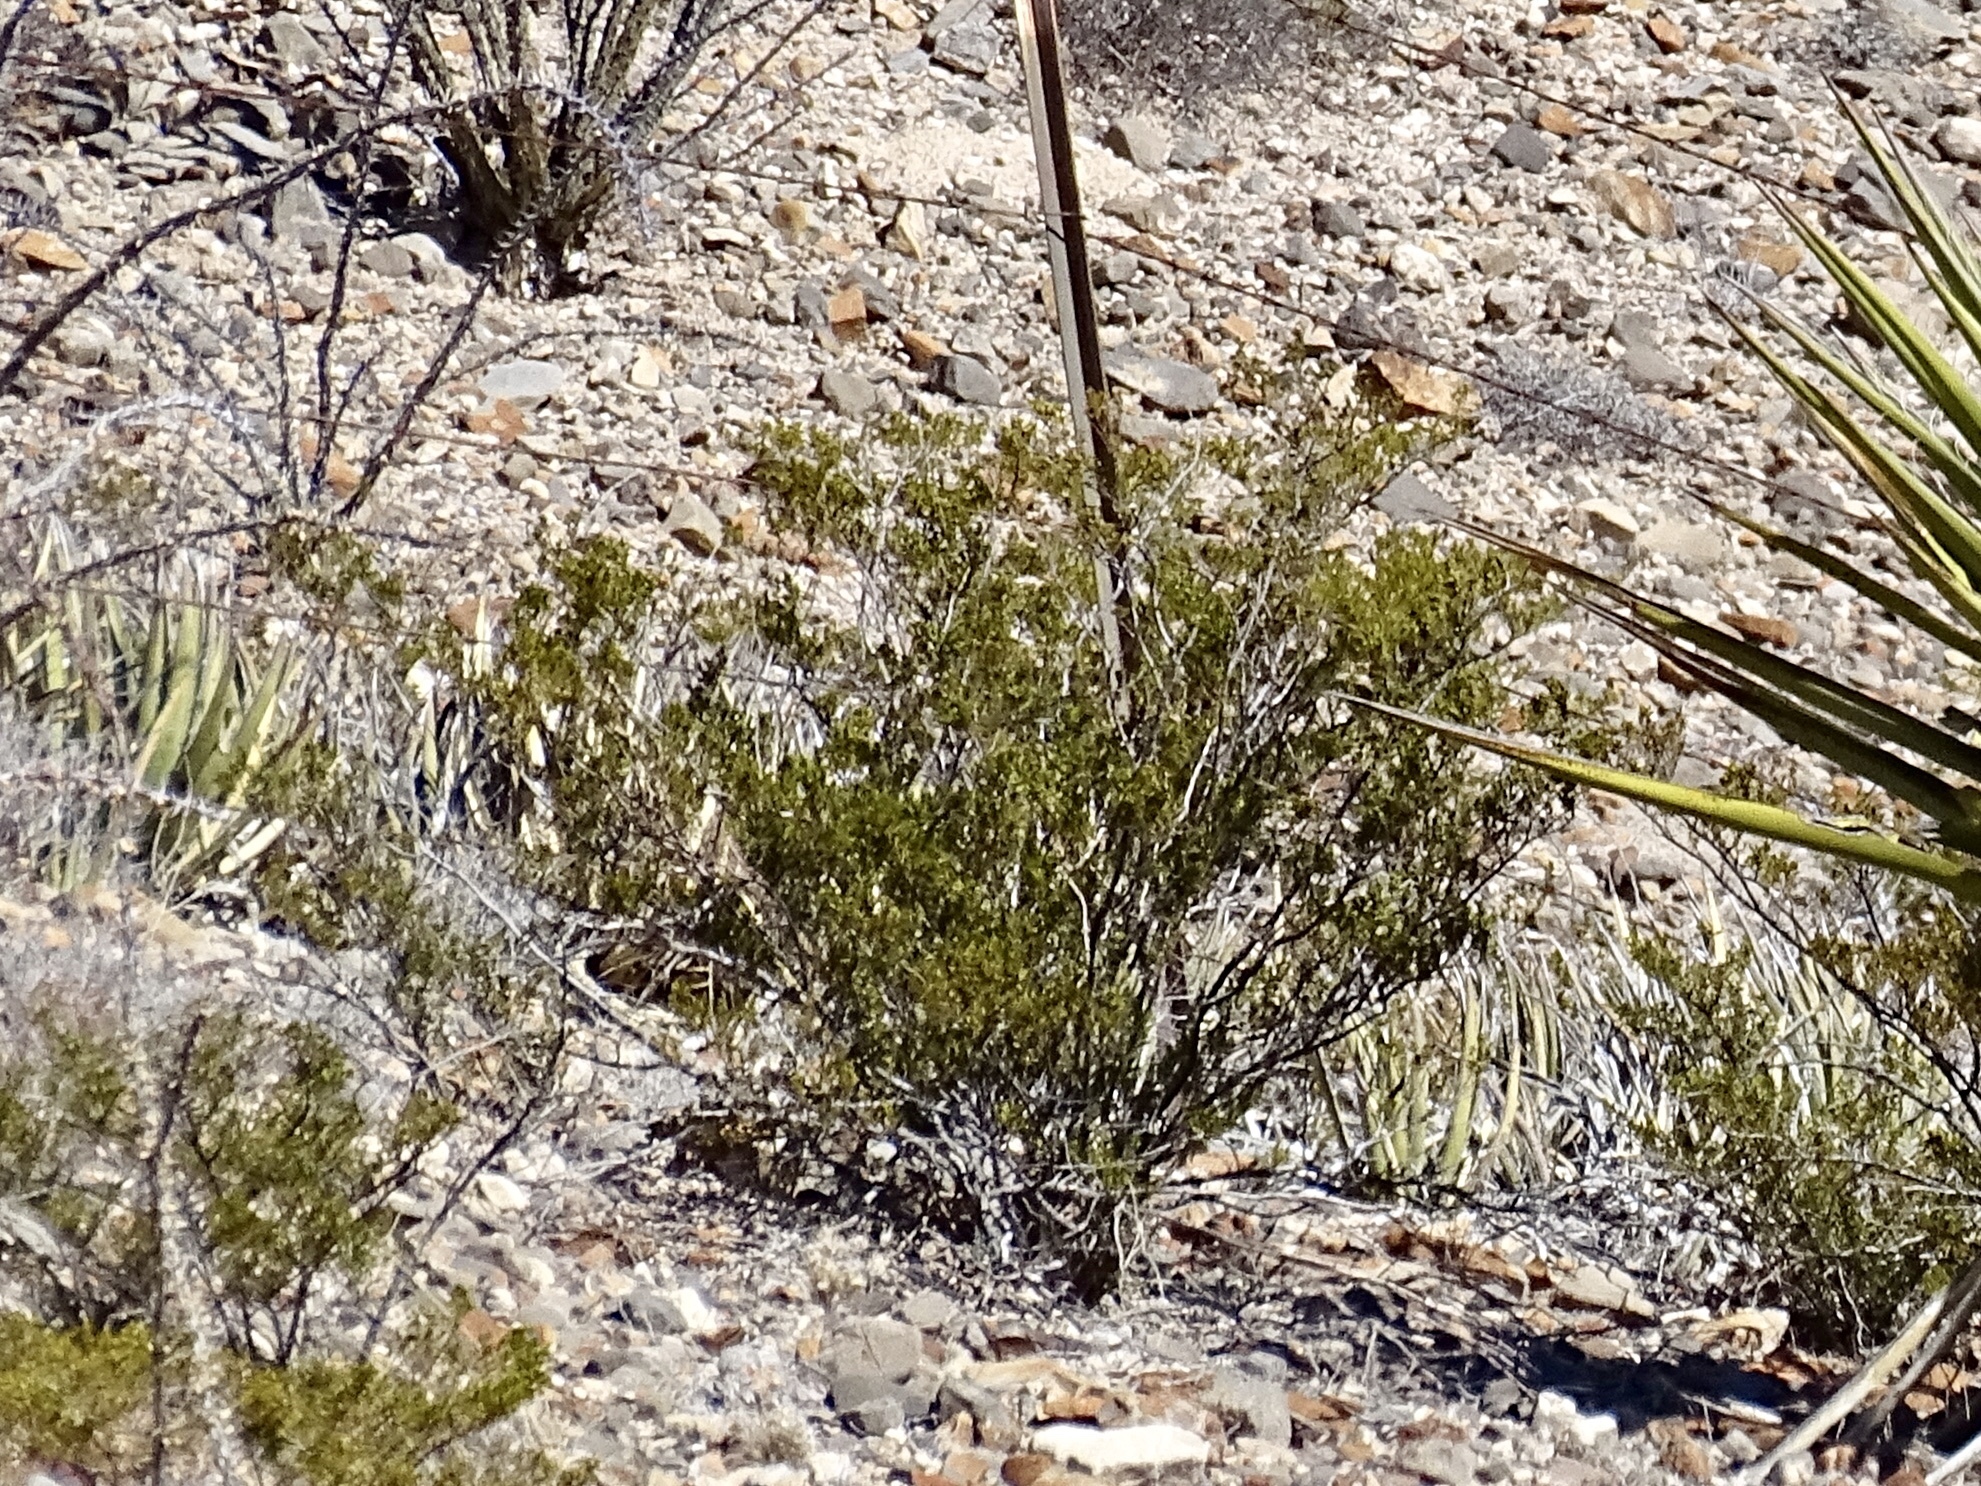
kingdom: Plantae
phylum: Tracheophyta
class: Magnoliopsida
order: Zygophyllales
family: Zygophyllaceae
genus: Larrea
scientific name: Larrea tridentata
